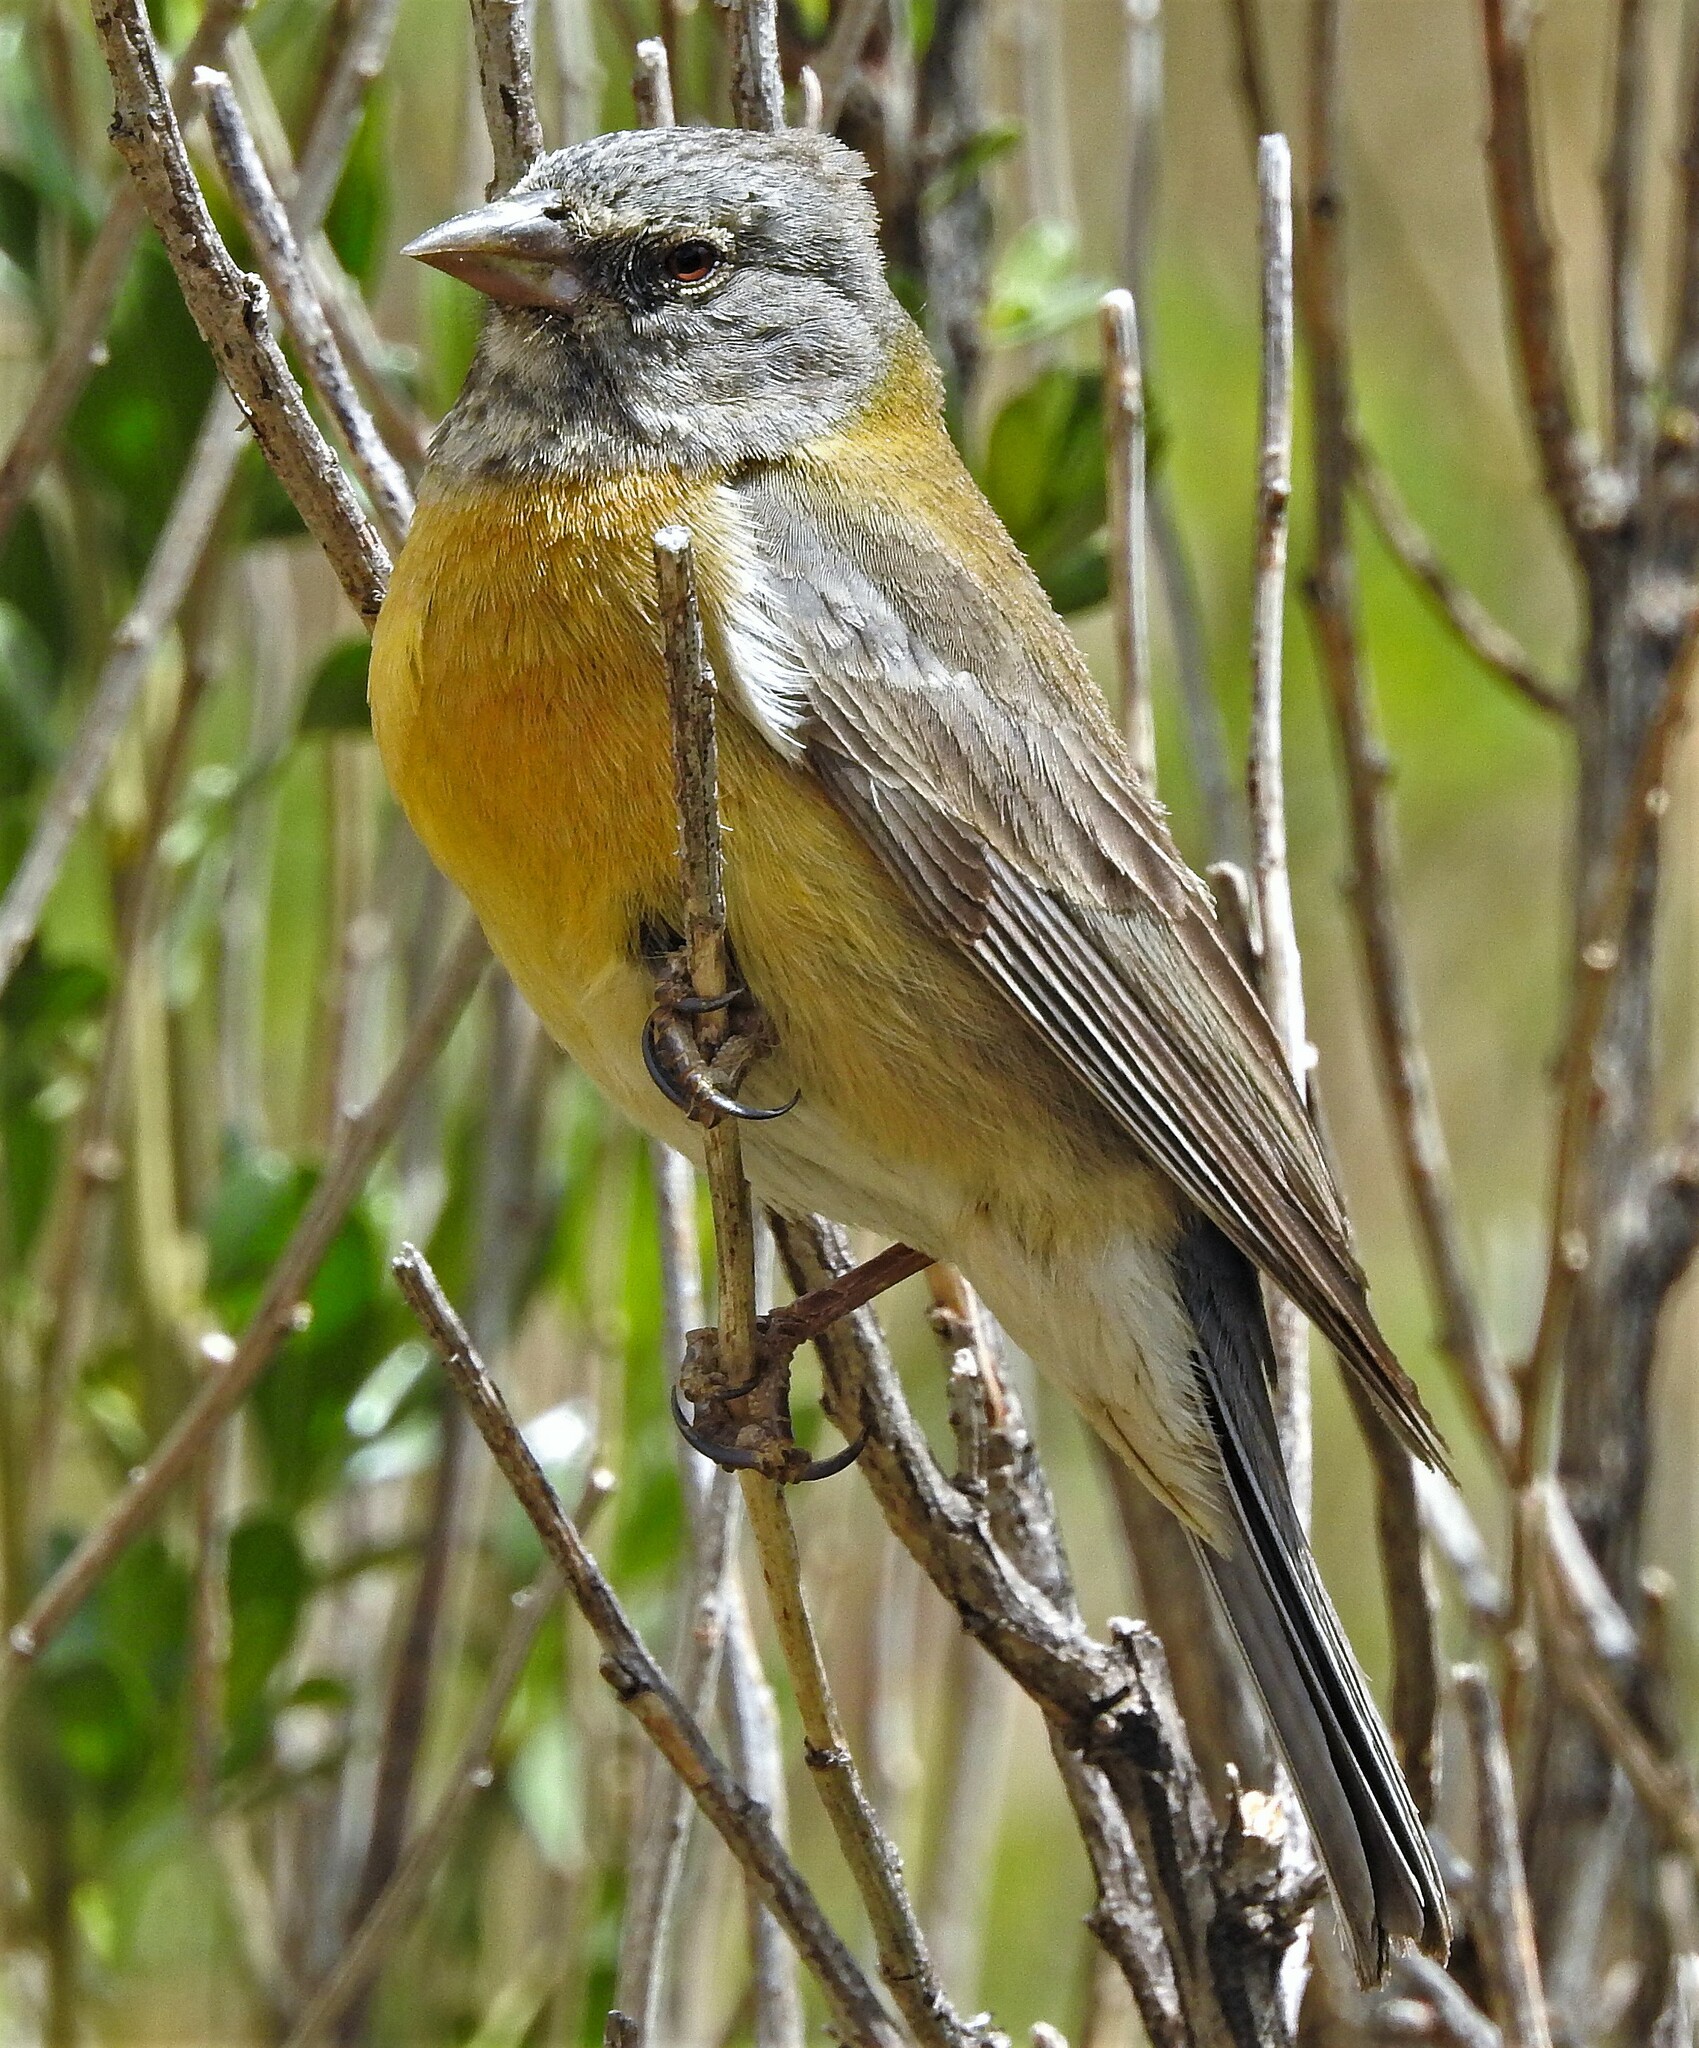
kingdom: Animalia
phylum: Chordata
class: Aves
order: Passeriformes
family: Thraupidae
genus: Phrygilus
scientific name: Phrygilus gayi
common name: Grey-hooded sierra finch
